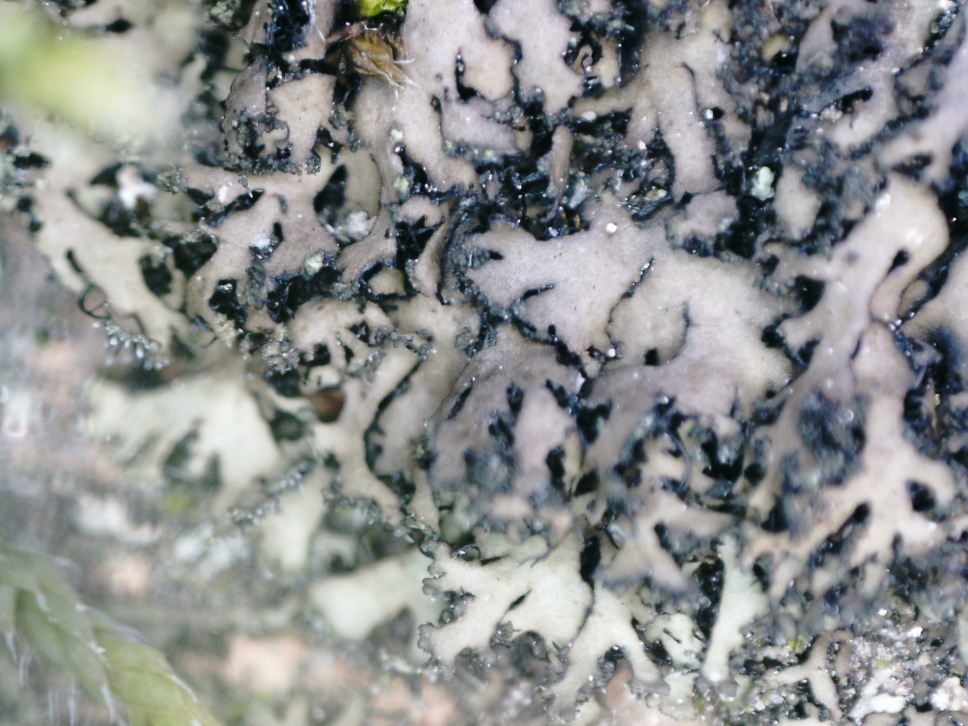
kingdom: Fungi
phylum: Ascomycota
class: Lecanoromycetes
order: Caliciales
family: Physciaceae
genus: Phaeophyscia
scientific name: Phaeophyscia sciastra
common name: Dark shadow lichen
